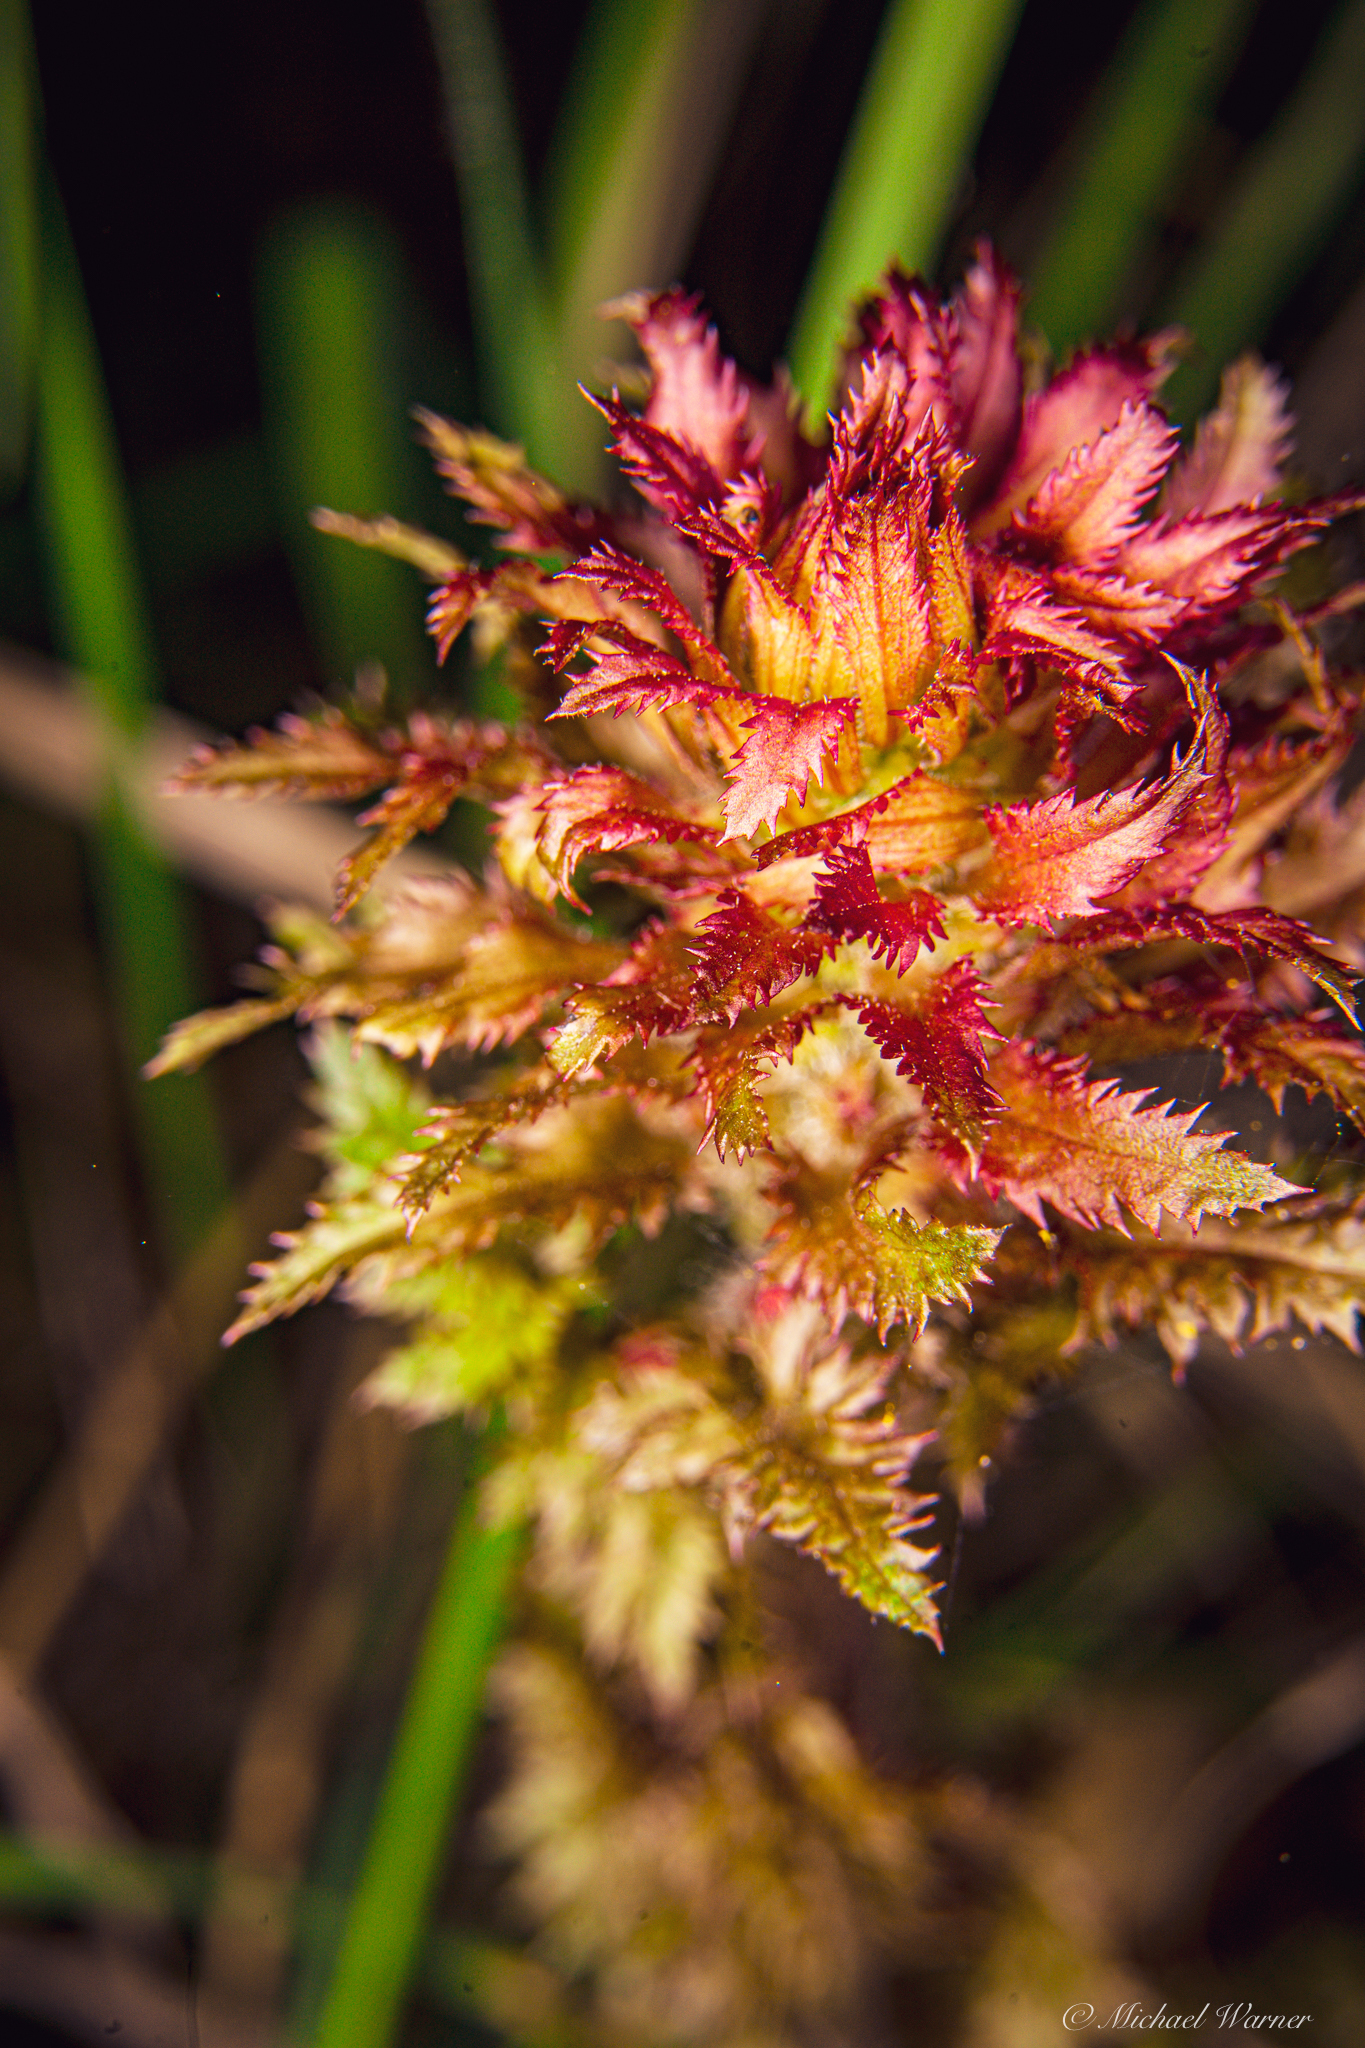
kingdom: Plantae
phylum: Tracheophyta
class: Magnoliopsida
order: Lamiales
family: Orobanchaceae
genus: Pedicularis
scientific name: Pedicularis densiflora
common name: Indian warrior
